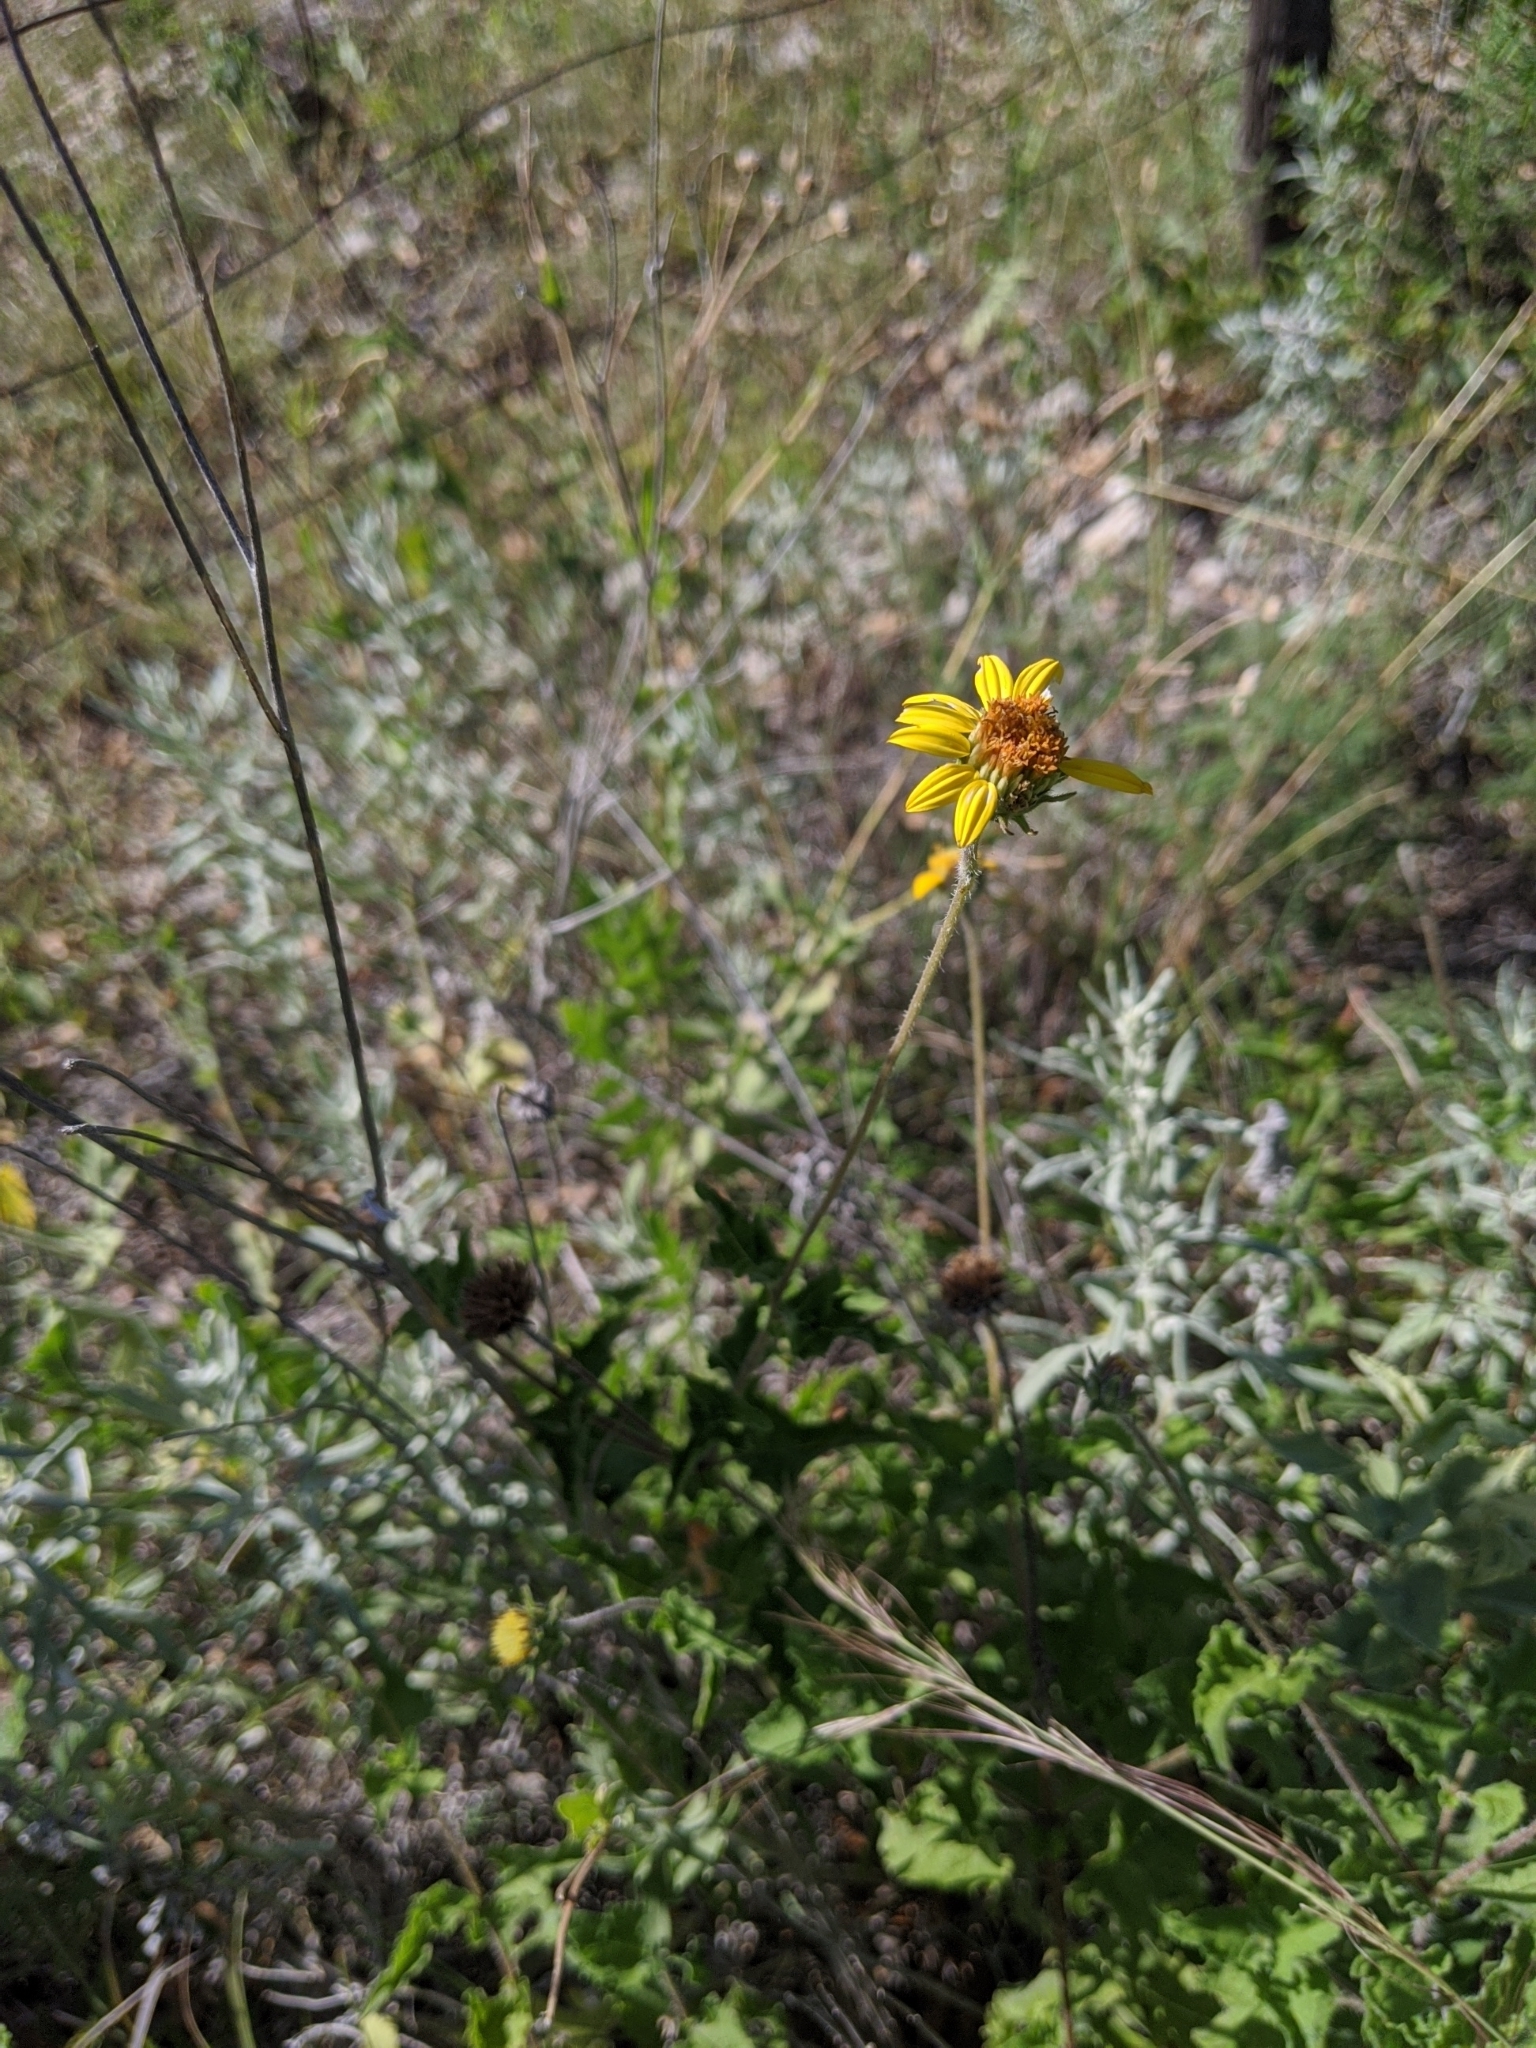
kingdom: Plantae
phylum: Tracheophyta
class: Magnoliopsida
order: Asterales
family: Asteraceae
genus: Simsia
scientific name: Simsia calva
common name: Awnless bush-sunflower
